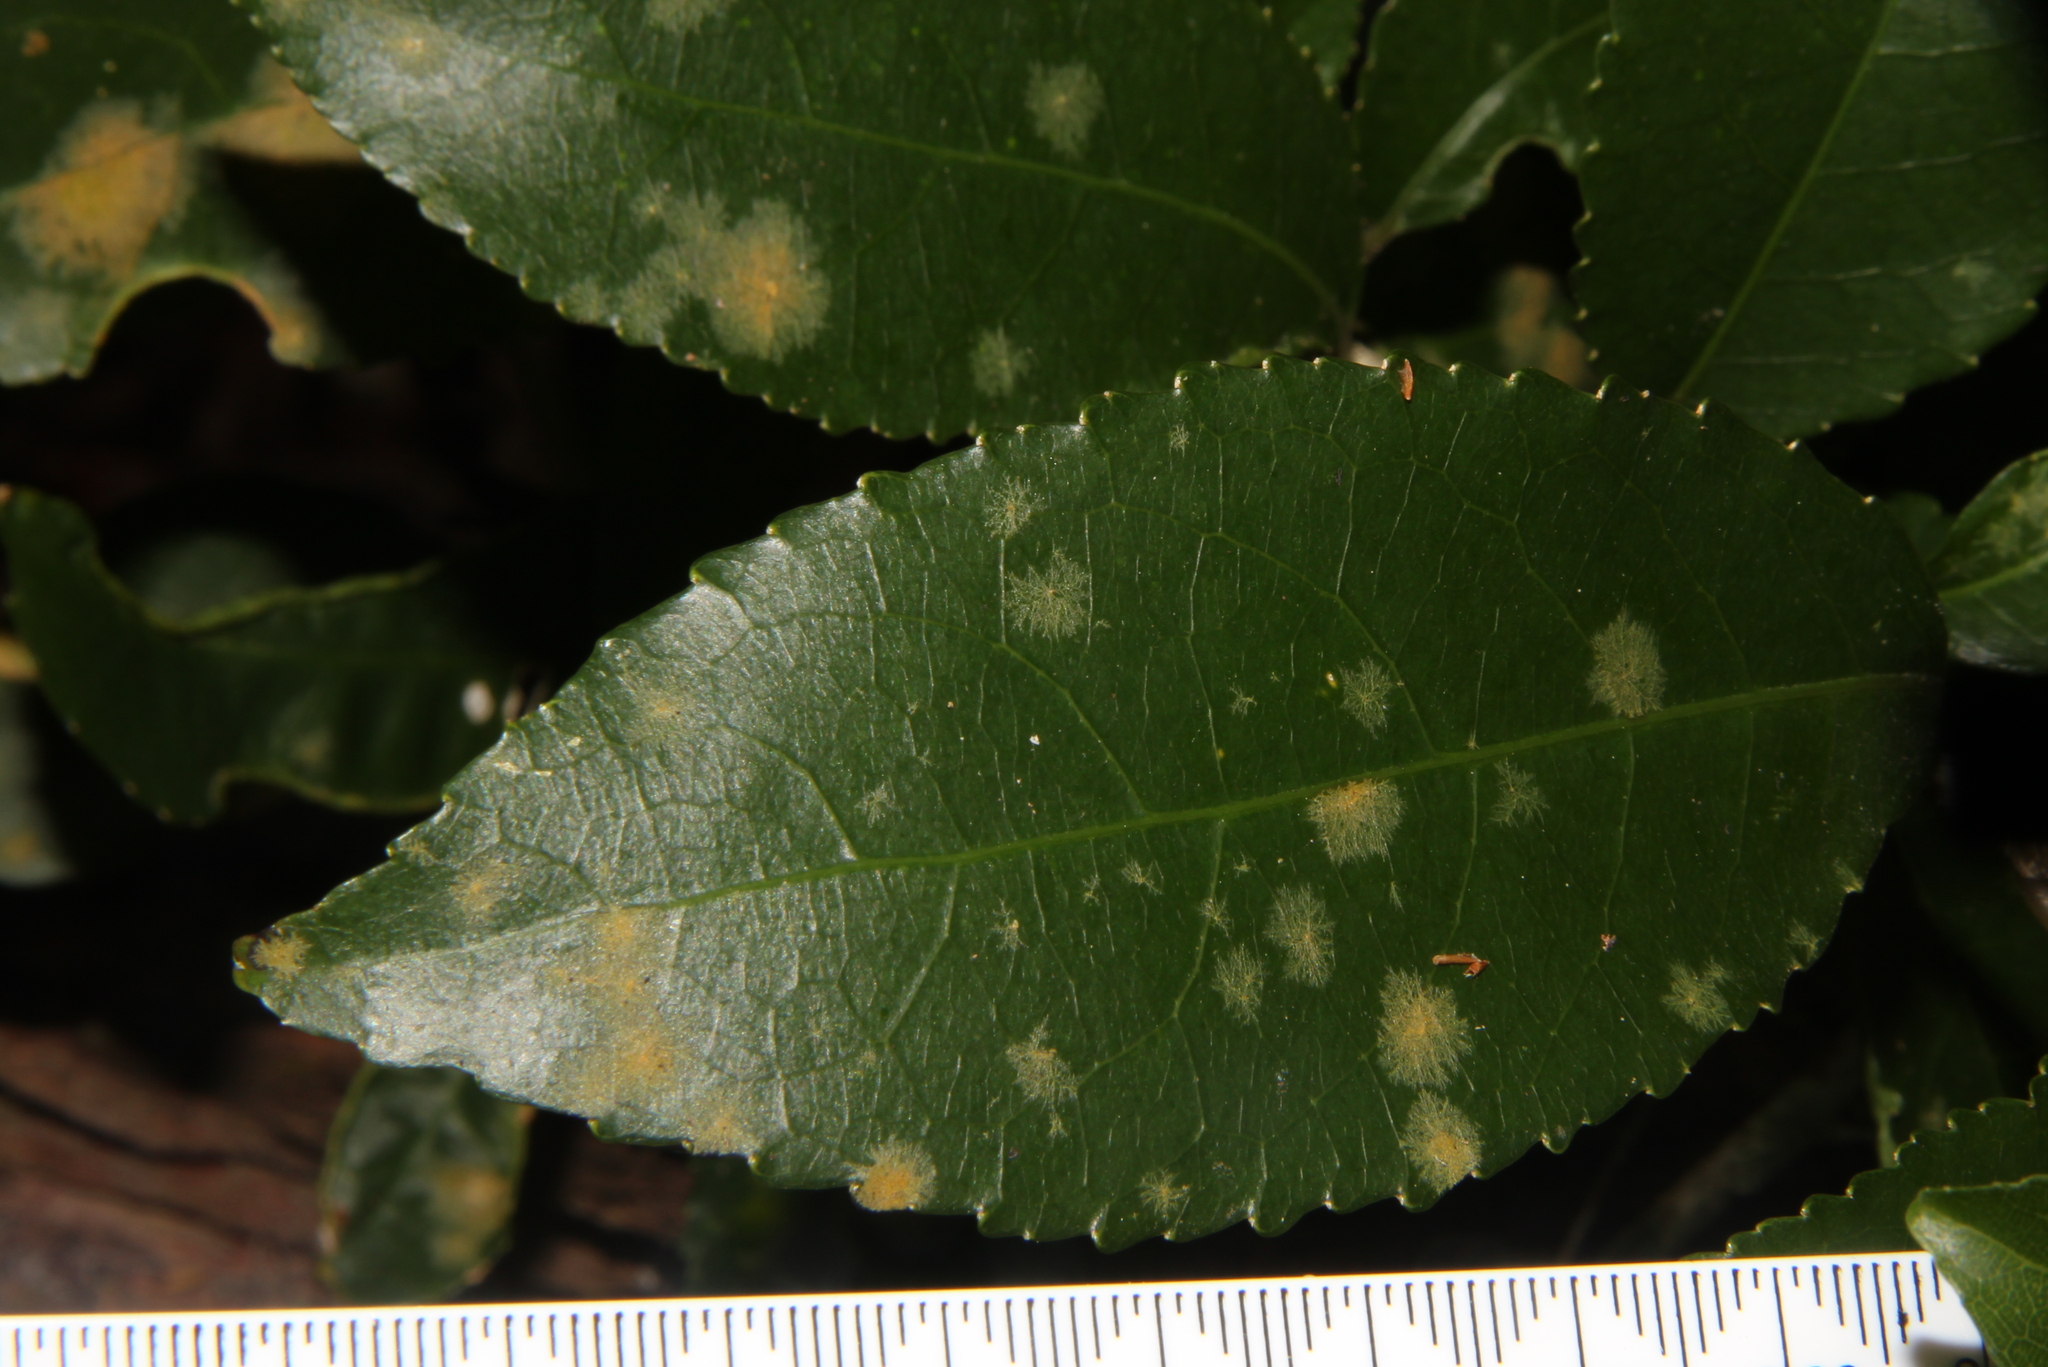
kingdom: Plantae
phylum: Chlorophyta
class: Ulvophyceae
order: Trentepohliales
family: Trentepohliaceae
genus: Cephaleuros
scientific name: Cephaleuros
